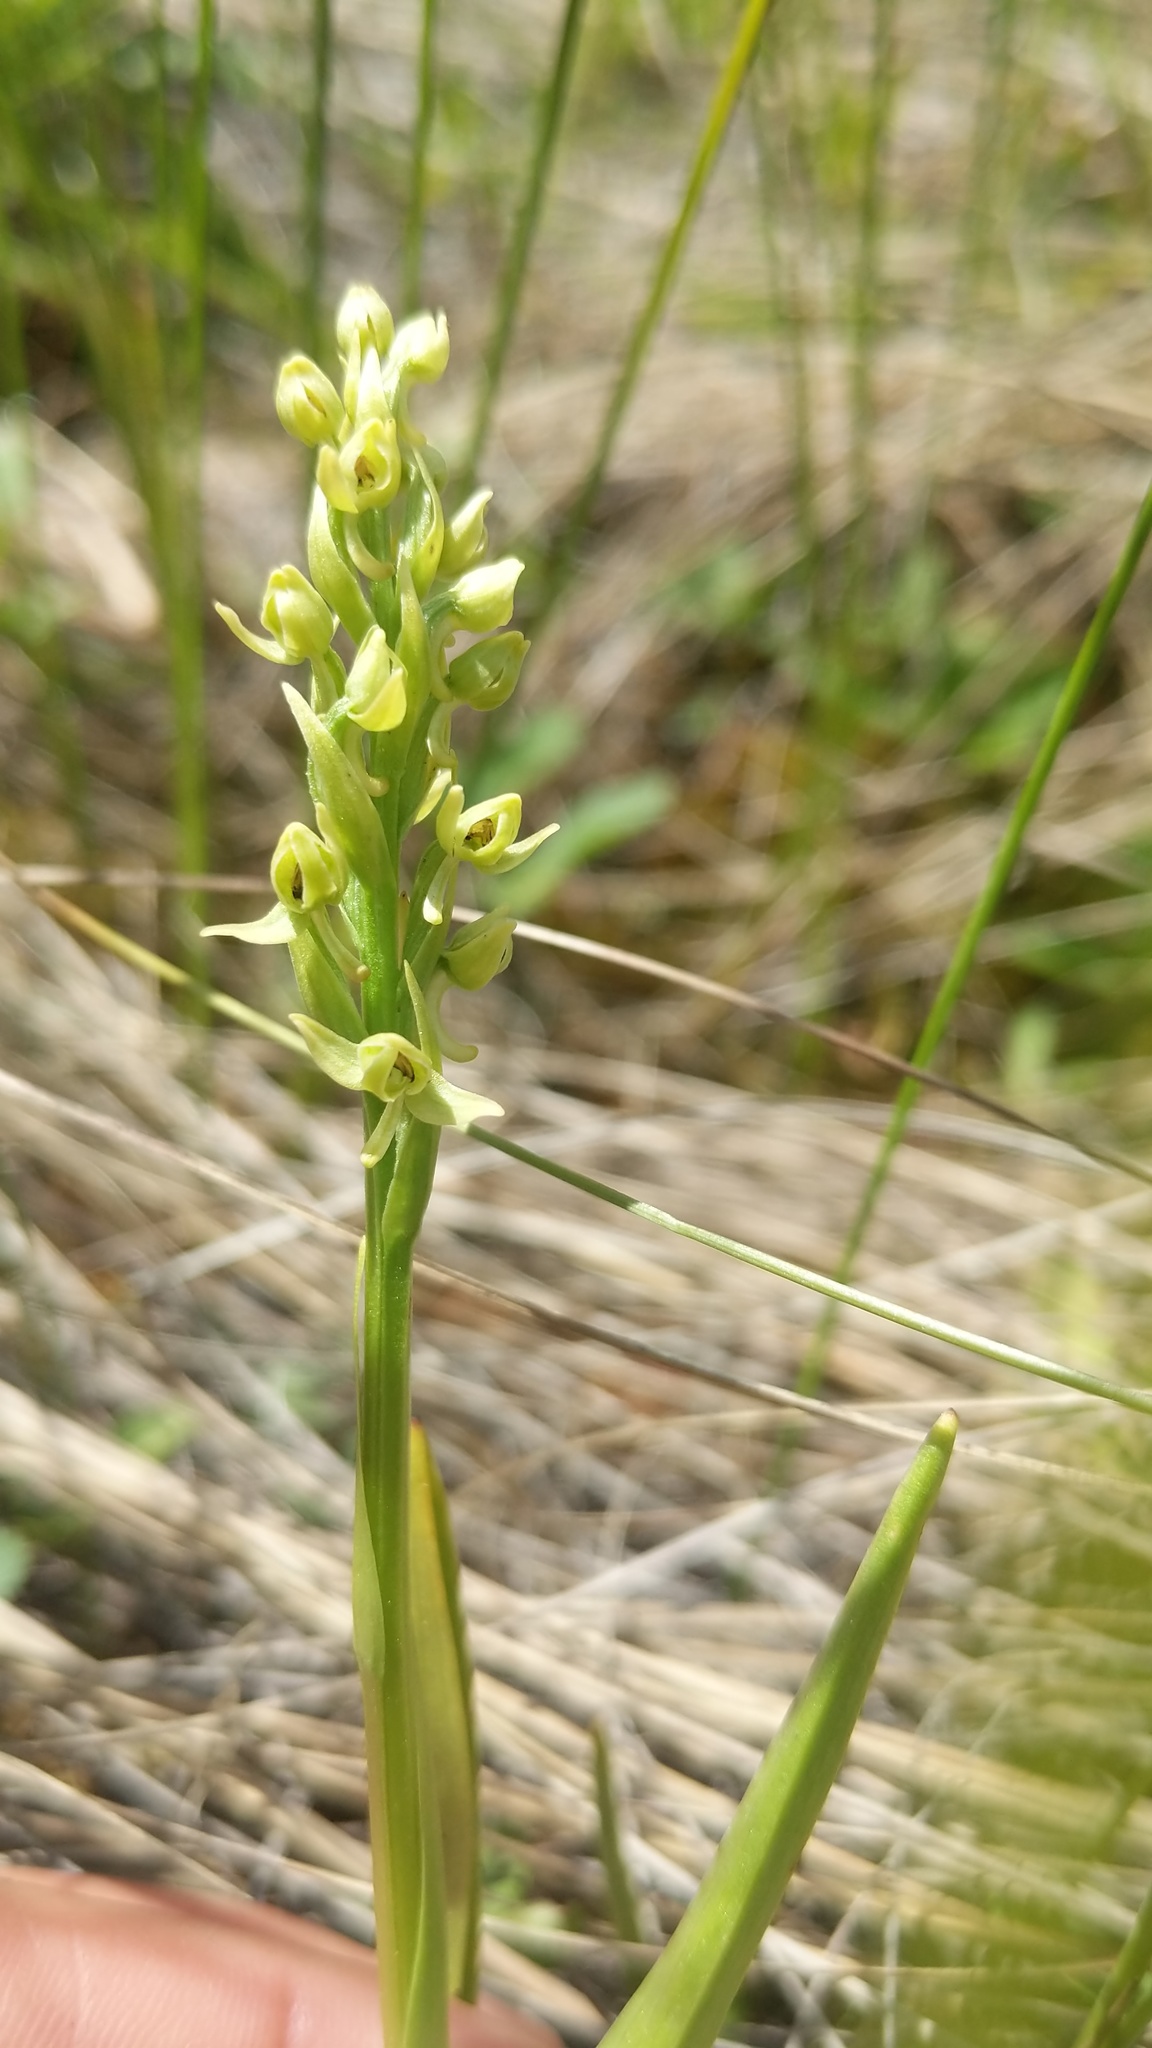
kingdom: Plantae
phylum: Tracheophyta
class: Liliopsida
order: Asparagales
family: Orchidaceae
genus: Platanthera
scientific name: Platanthera huronensis
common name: Fragrant green orchid
